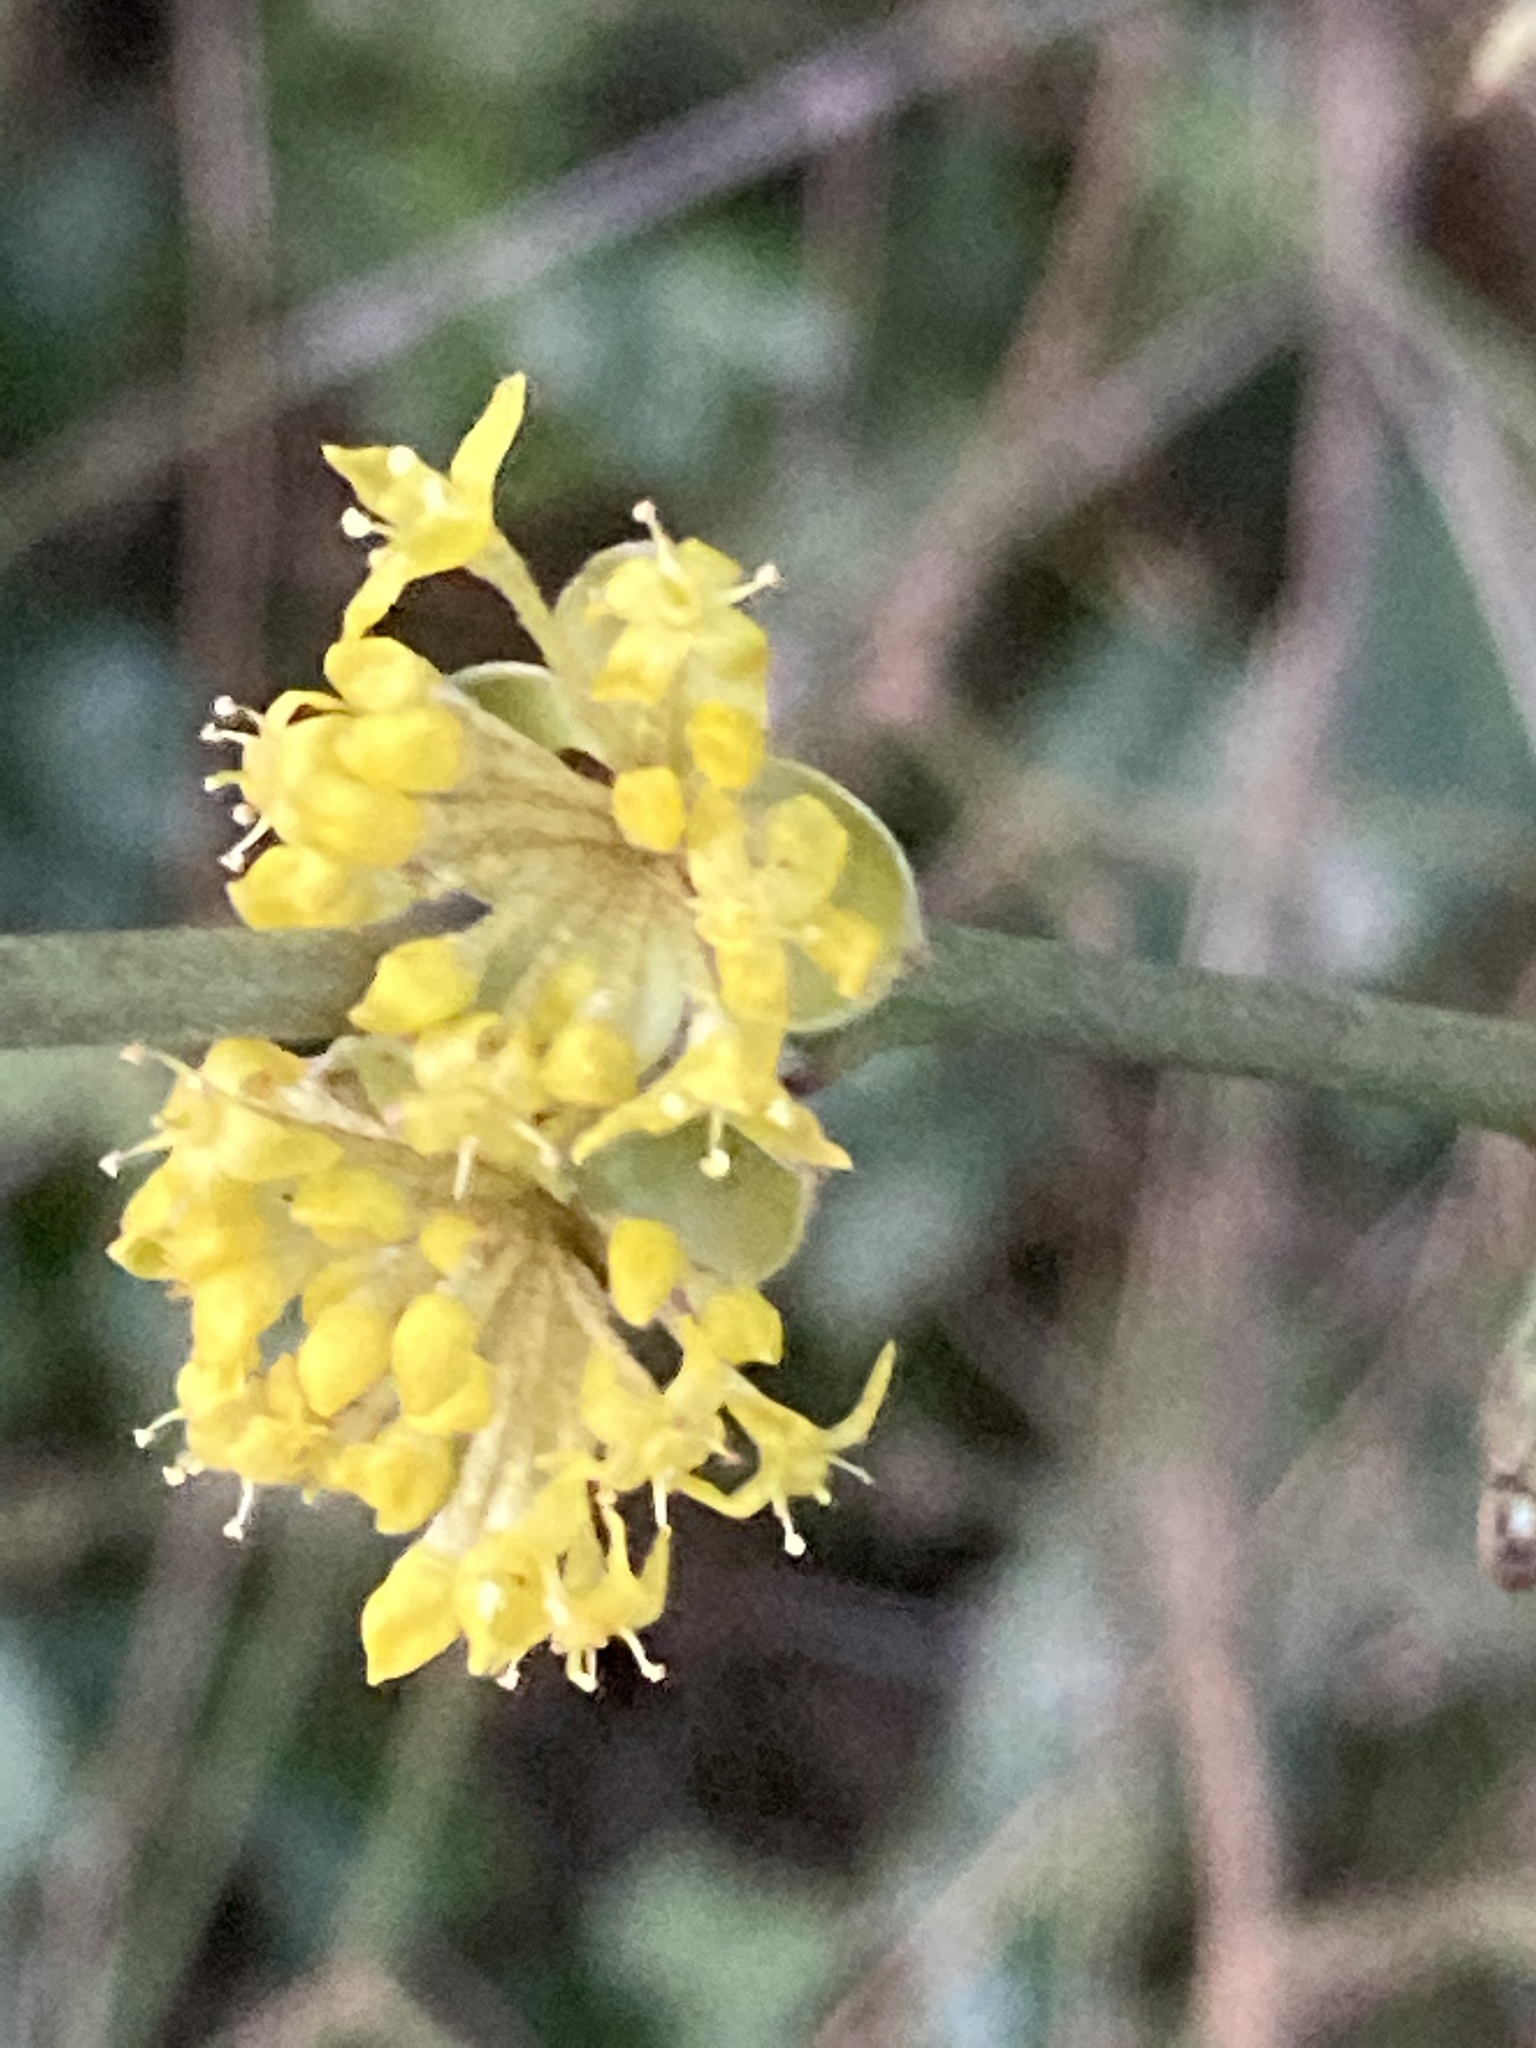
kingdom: Plantae
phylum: Tracheophyta
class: Magnoliopsida
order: Cornales
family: Cornaceae
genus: Cornus
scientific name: Cornus mas
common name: Cornelian-cherry
